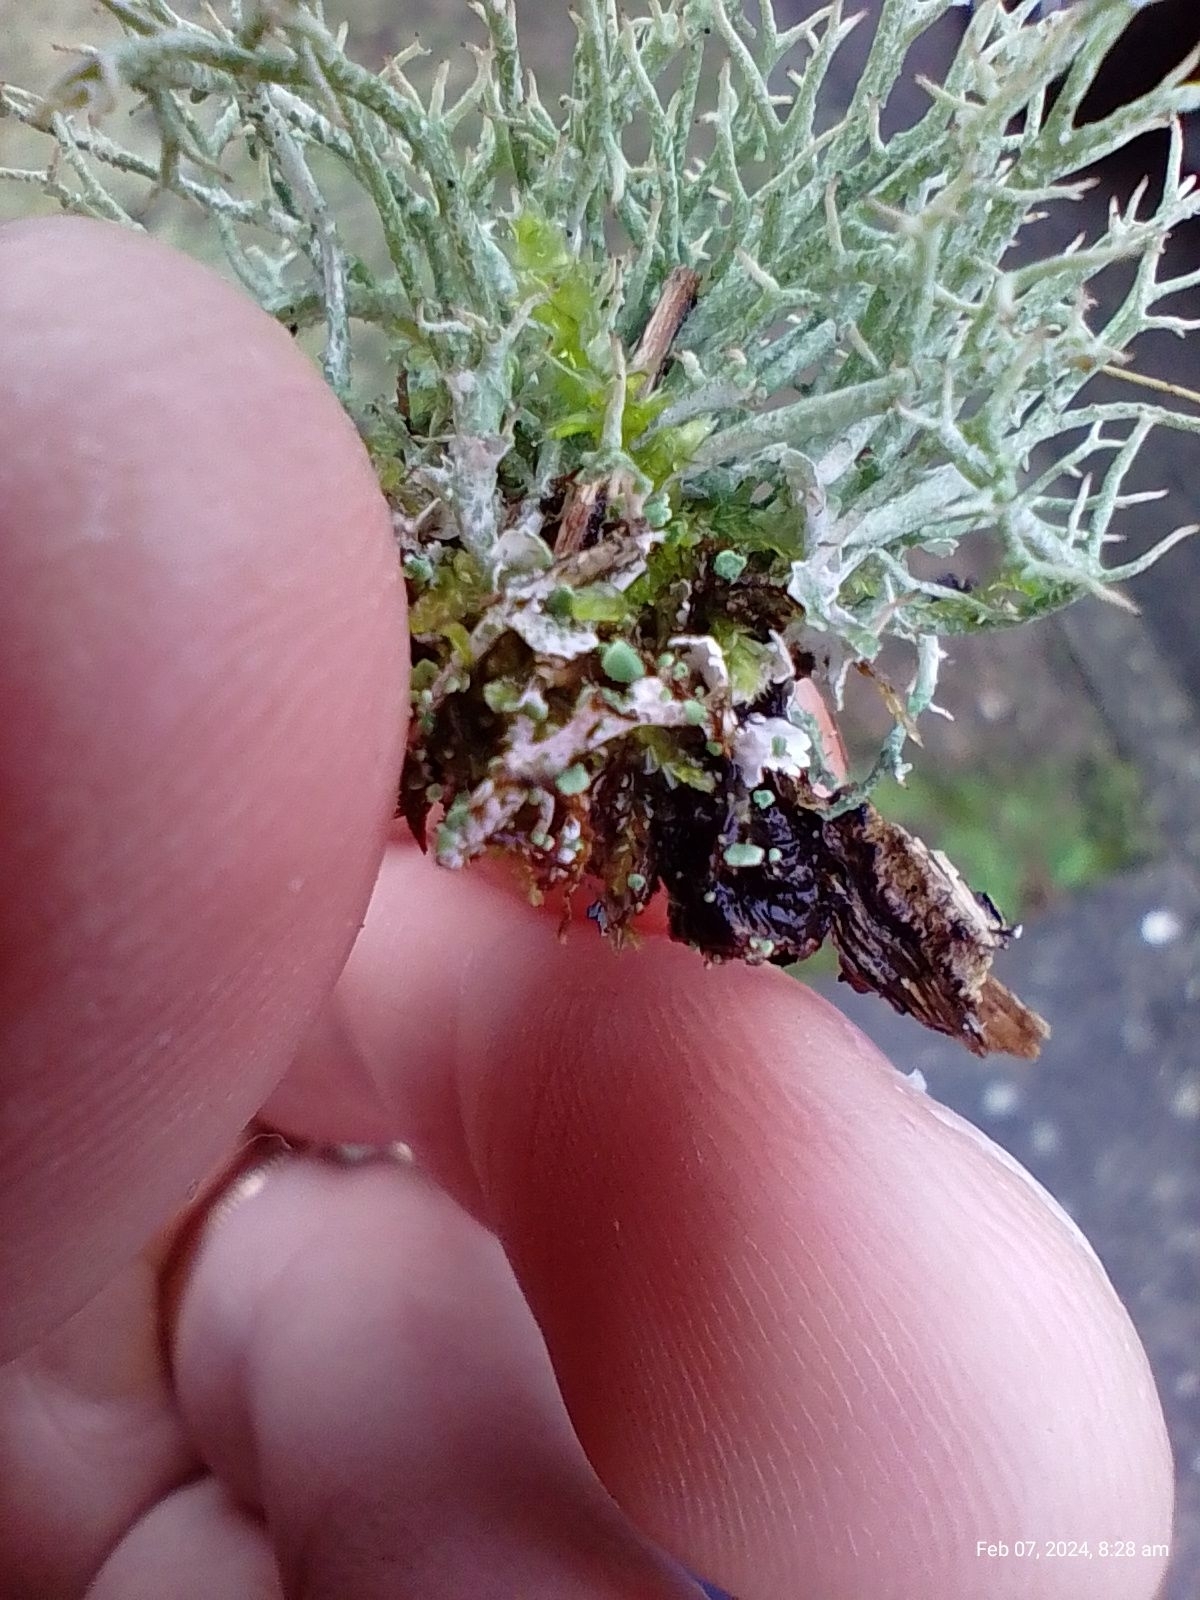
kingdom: Fungi
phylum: Ascomycota
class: Lecanoromycetes
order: Lecanorales
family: Cladoniaceae
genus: Cladonia
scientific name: Cladonia rangiformis
